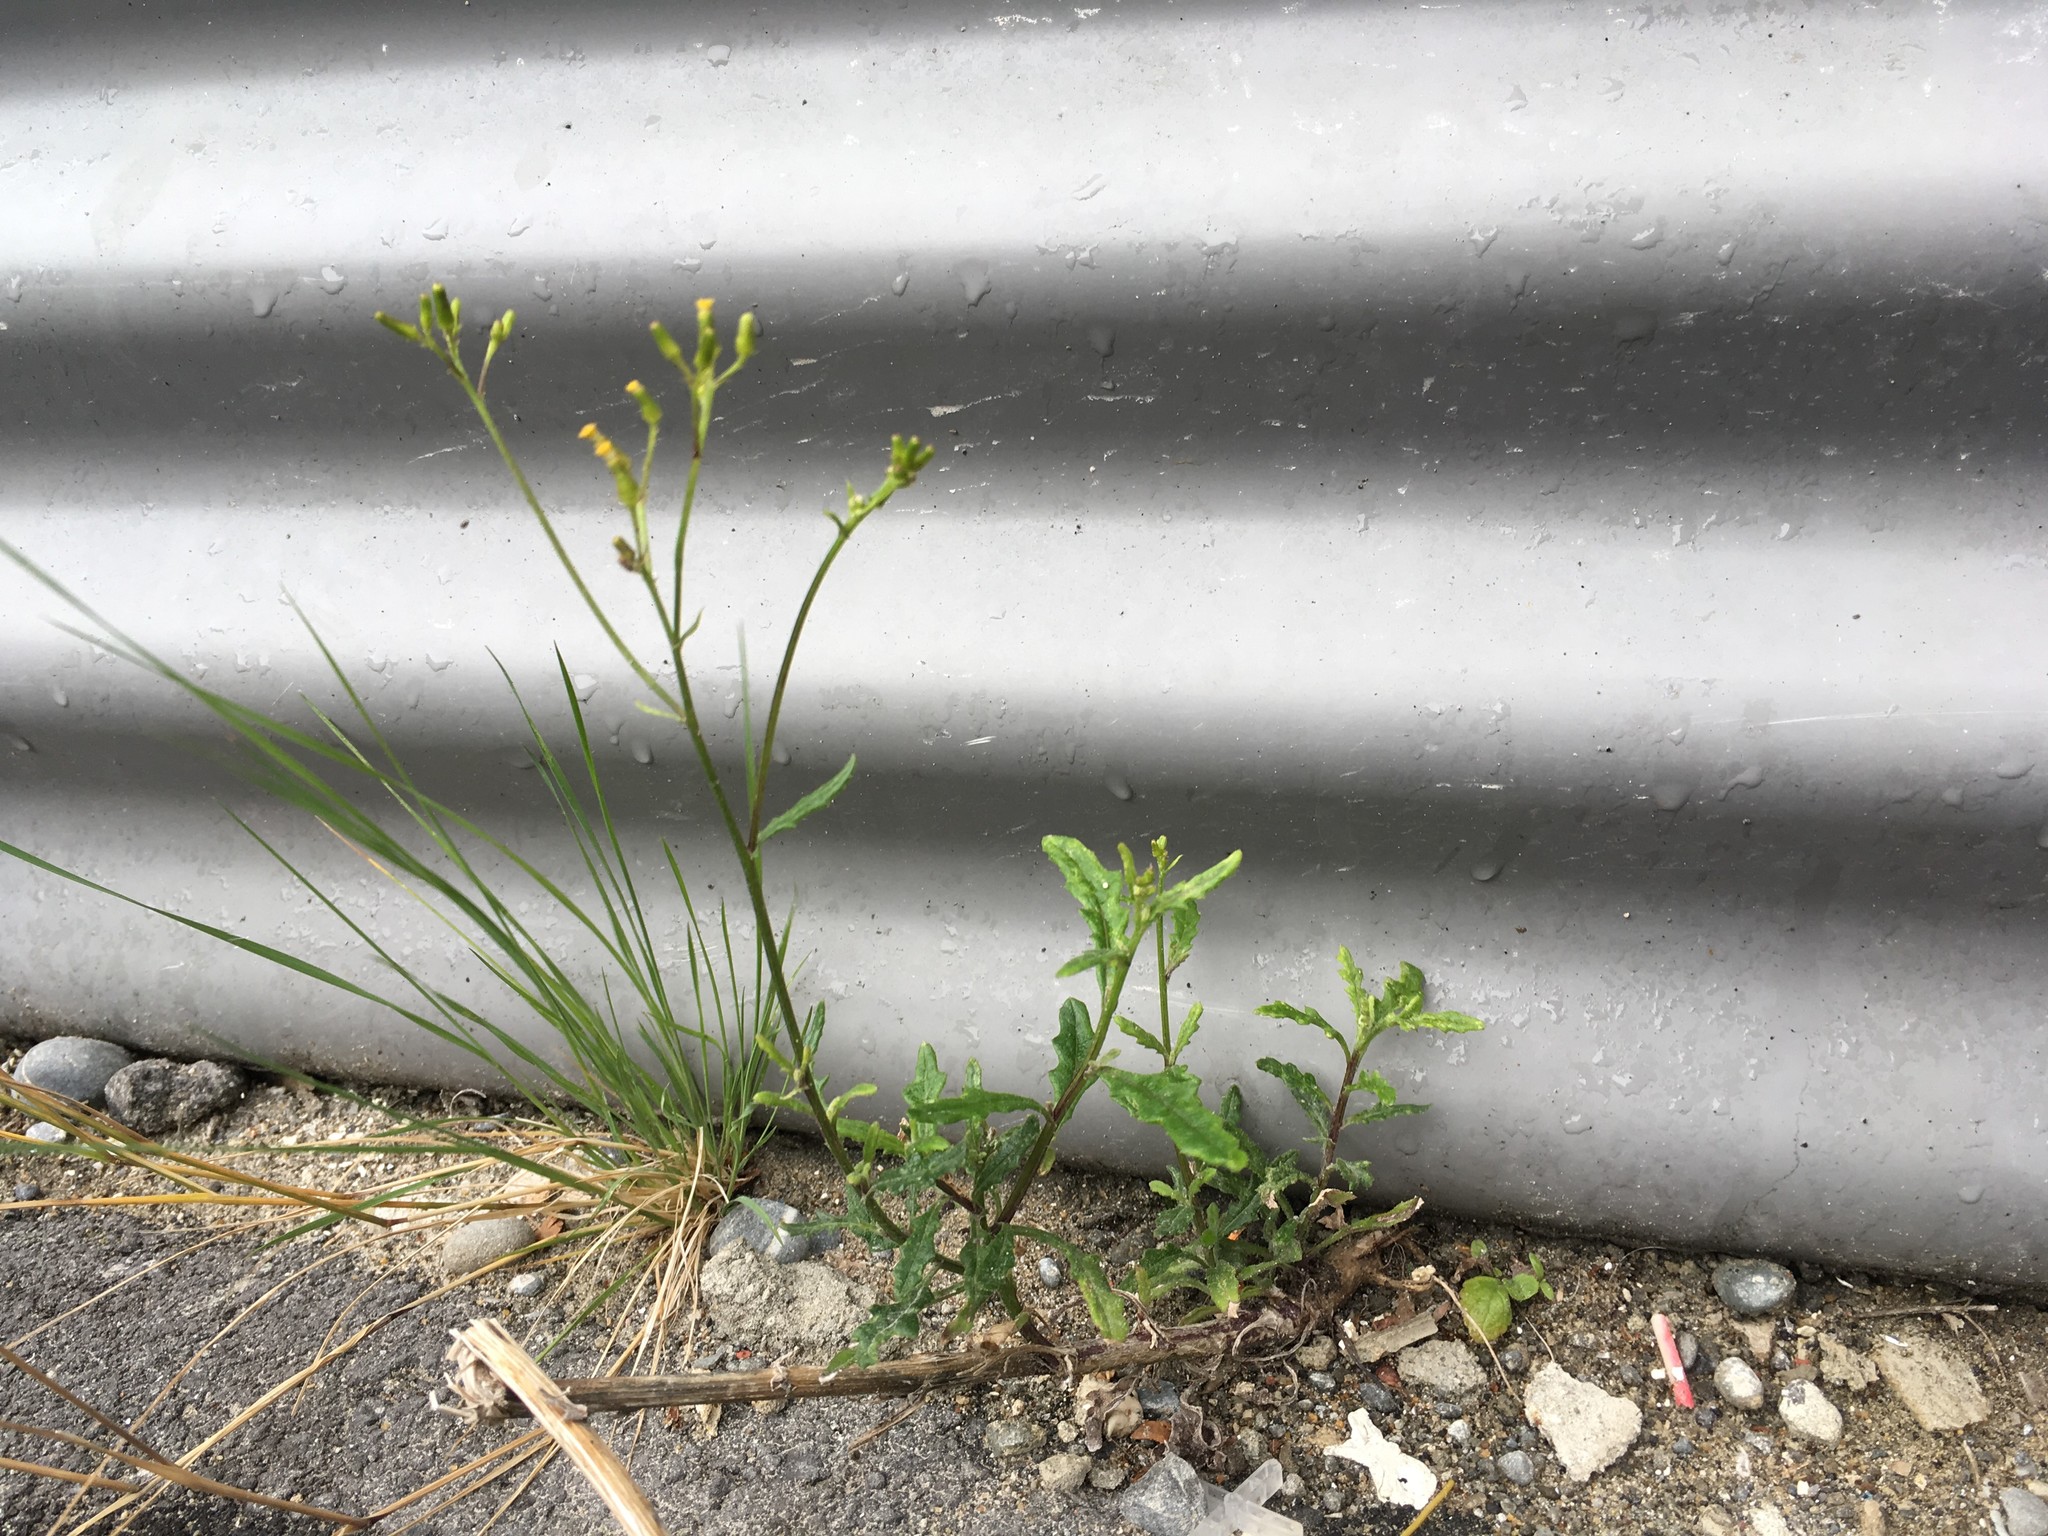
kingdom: Plantae
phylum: Tracheophyta
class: Magnoliopsida
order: Asterales
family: Asteraceae
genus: Senecio
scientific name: Senecio hispidulus
